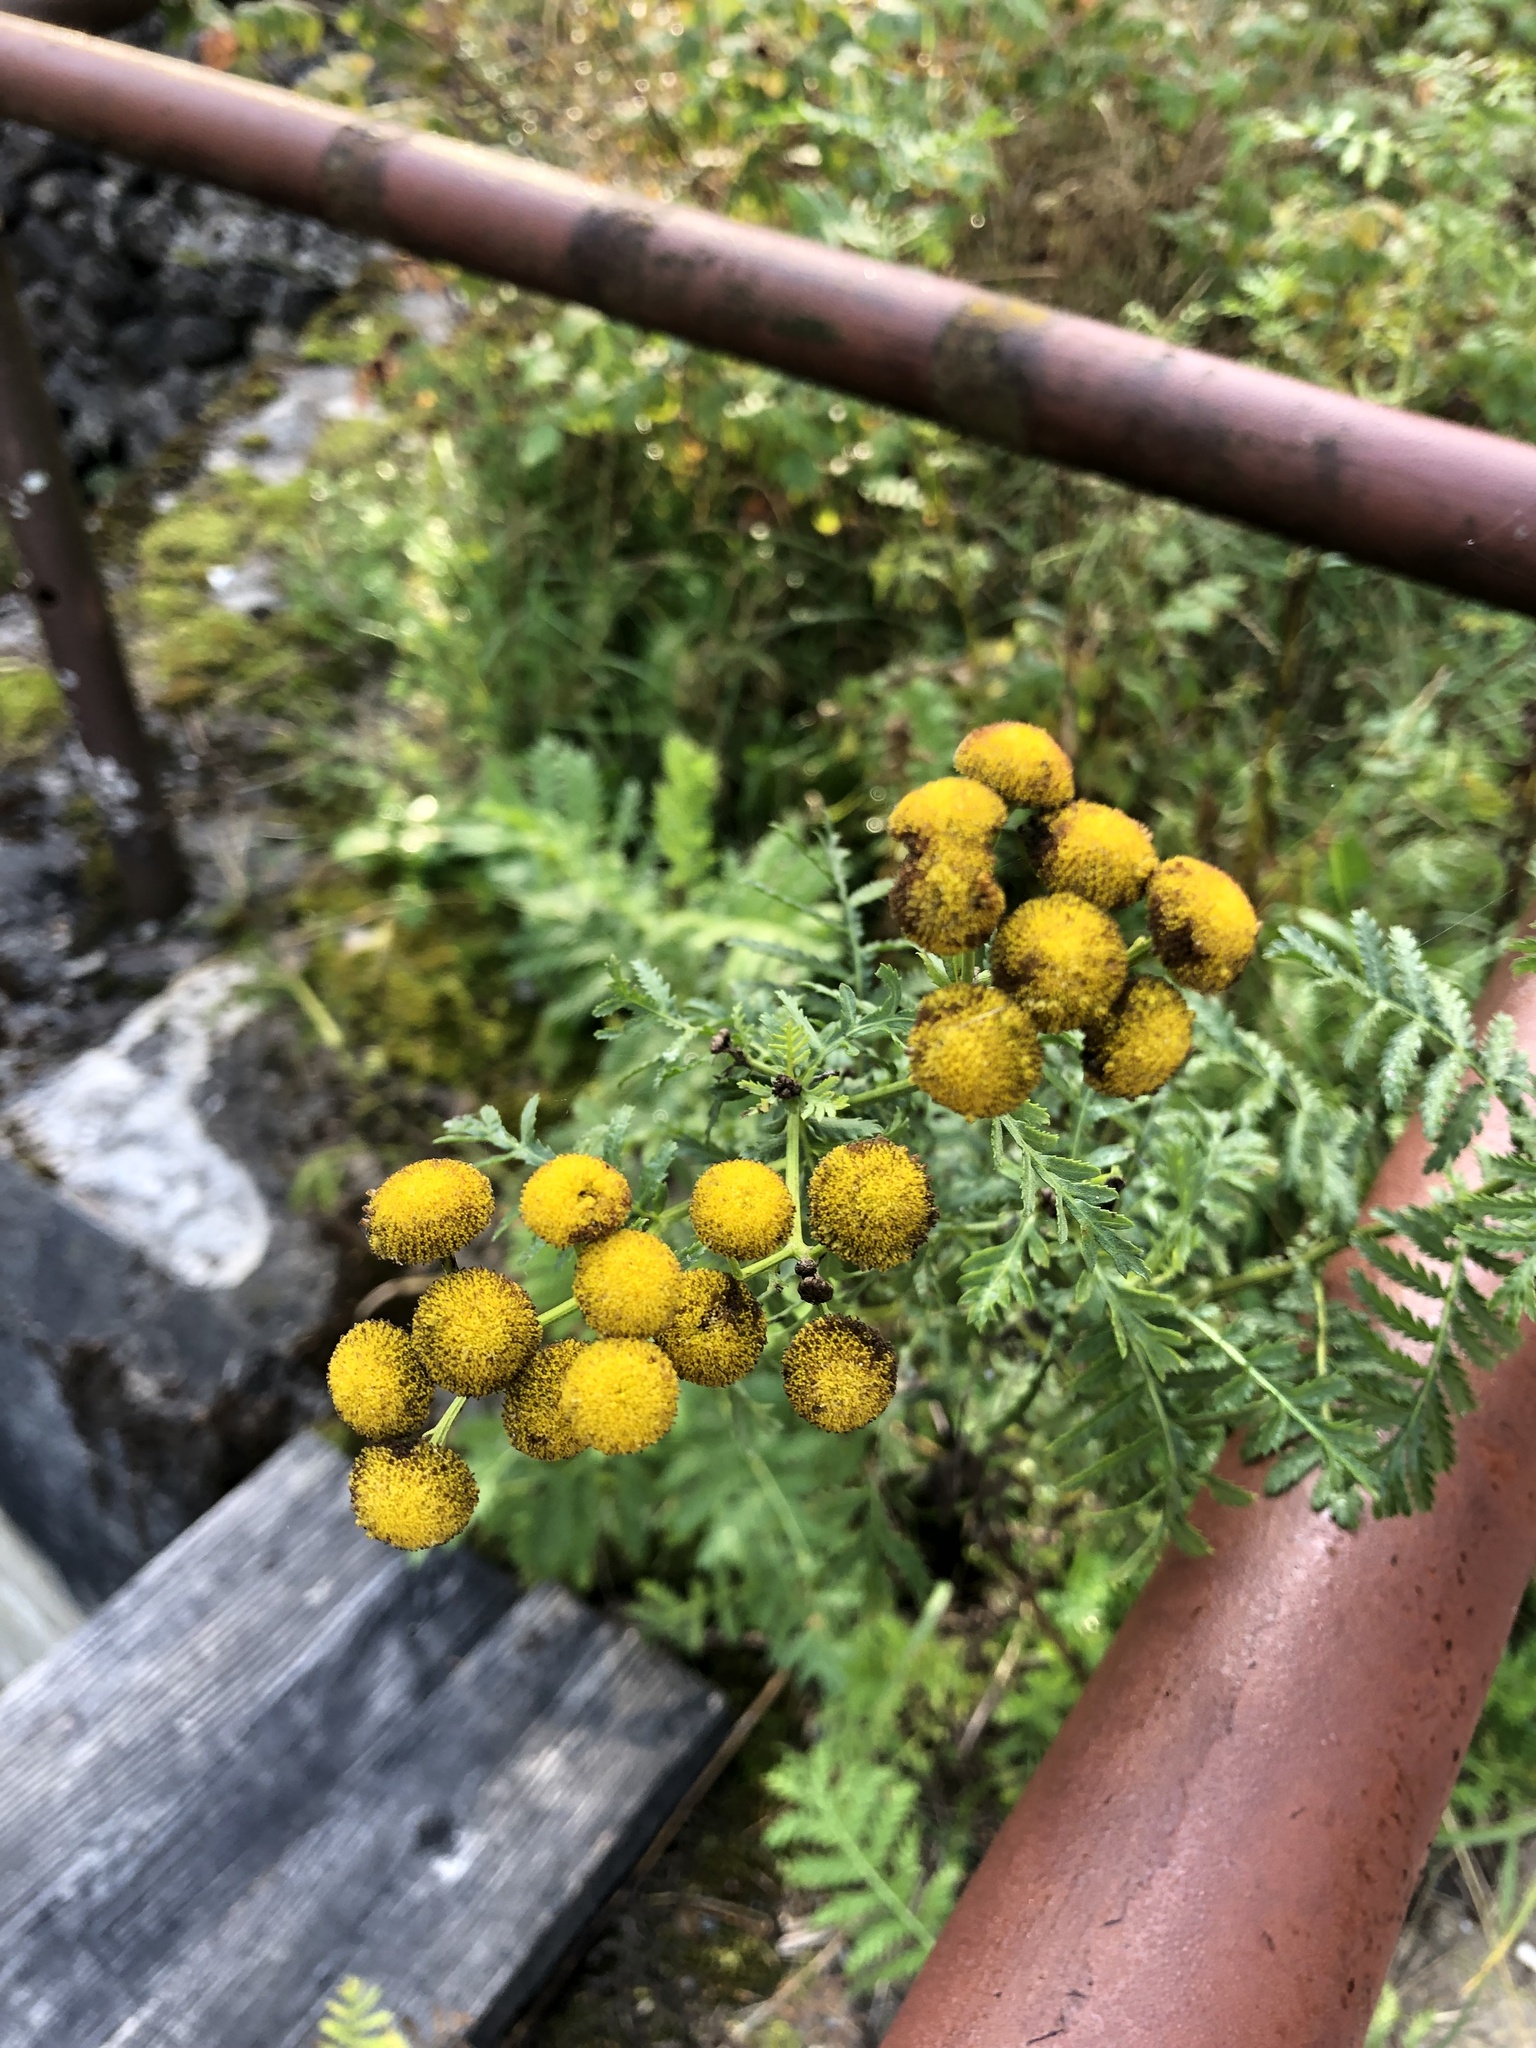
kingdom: Plantae
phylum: Tracheophyta
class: Magnoliopsida
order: Asterales
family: Asteraceae
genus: Tanacetum
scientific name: Tanacetum vulgare
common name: Common tansy
